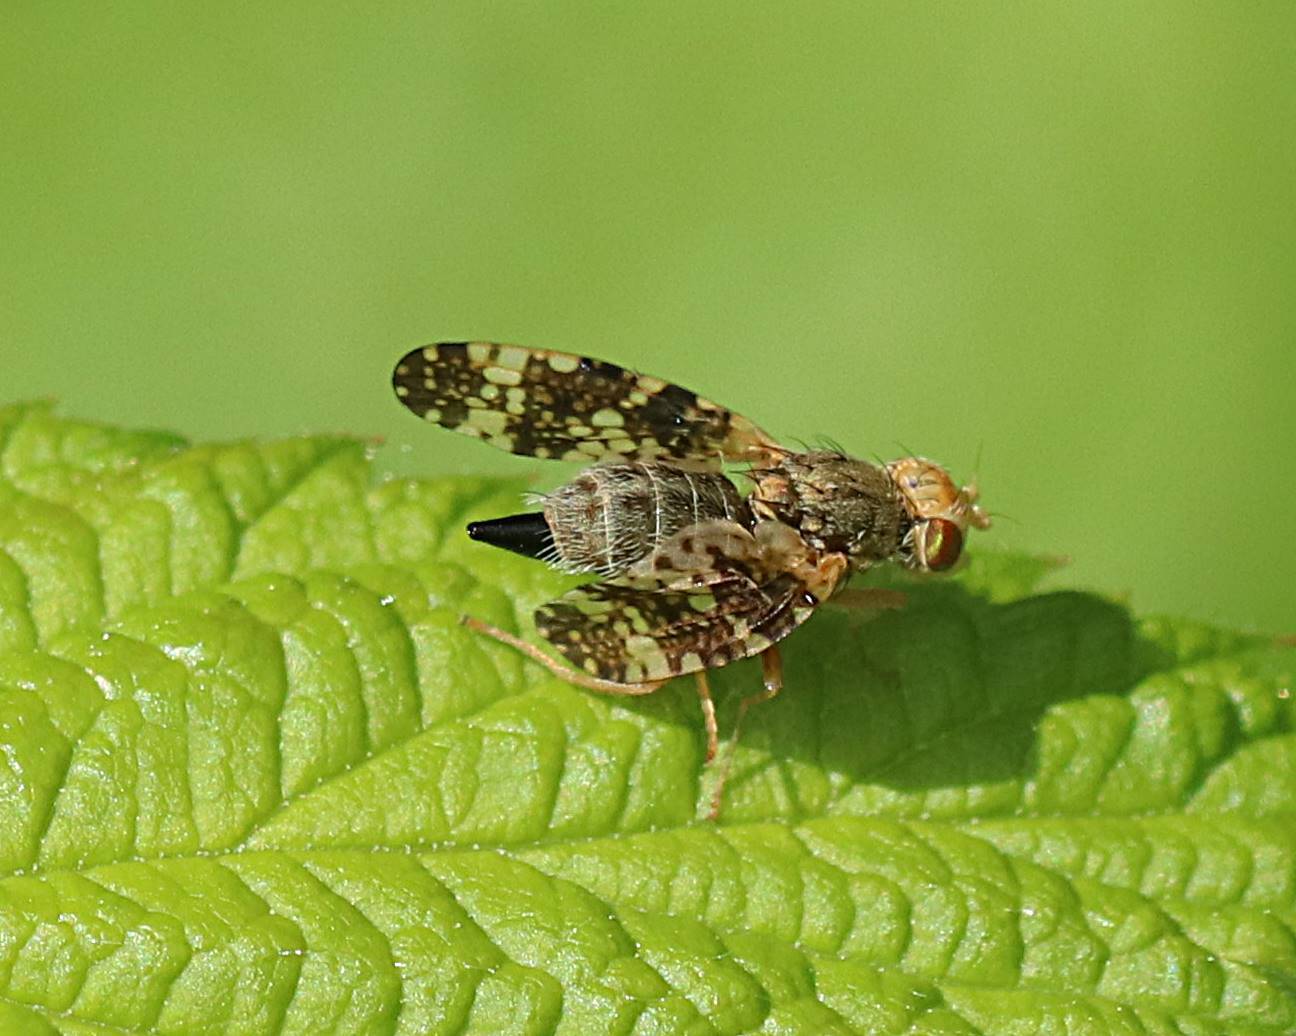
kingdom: Animalia
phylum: Arthropoda
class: Insecta
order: Diptera
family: Tephritidae
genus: Oxyna
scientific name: Oxyna parietina
